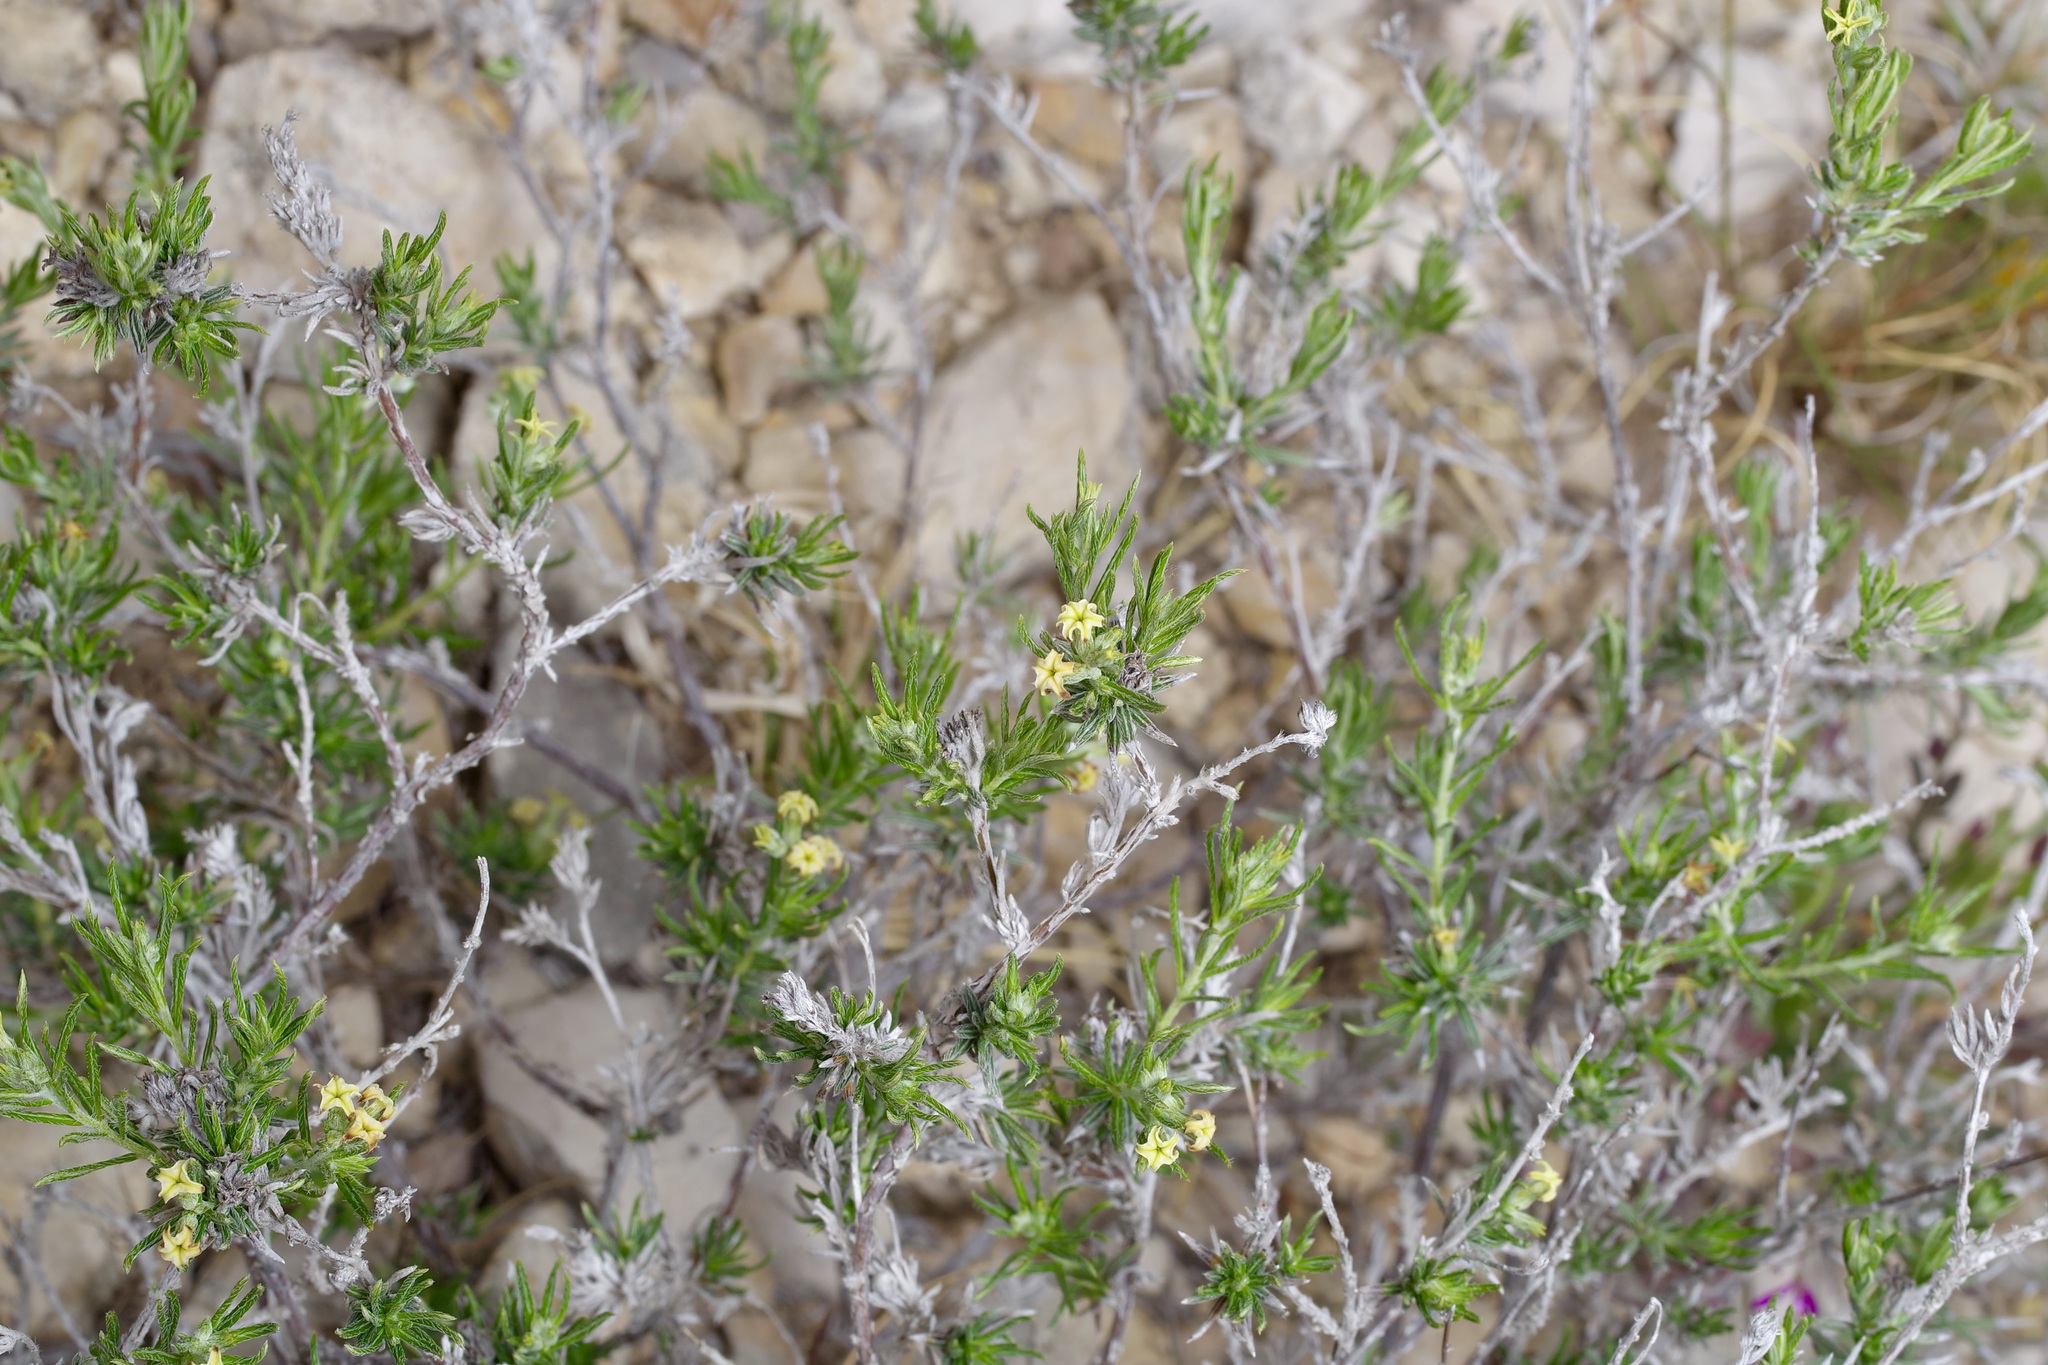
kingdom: Plantae
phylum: Tracheophyta
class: Magnoliopsida
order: Boraginales
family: Heliotropiaceae
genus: Euploca
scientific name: Euploca torreyi
